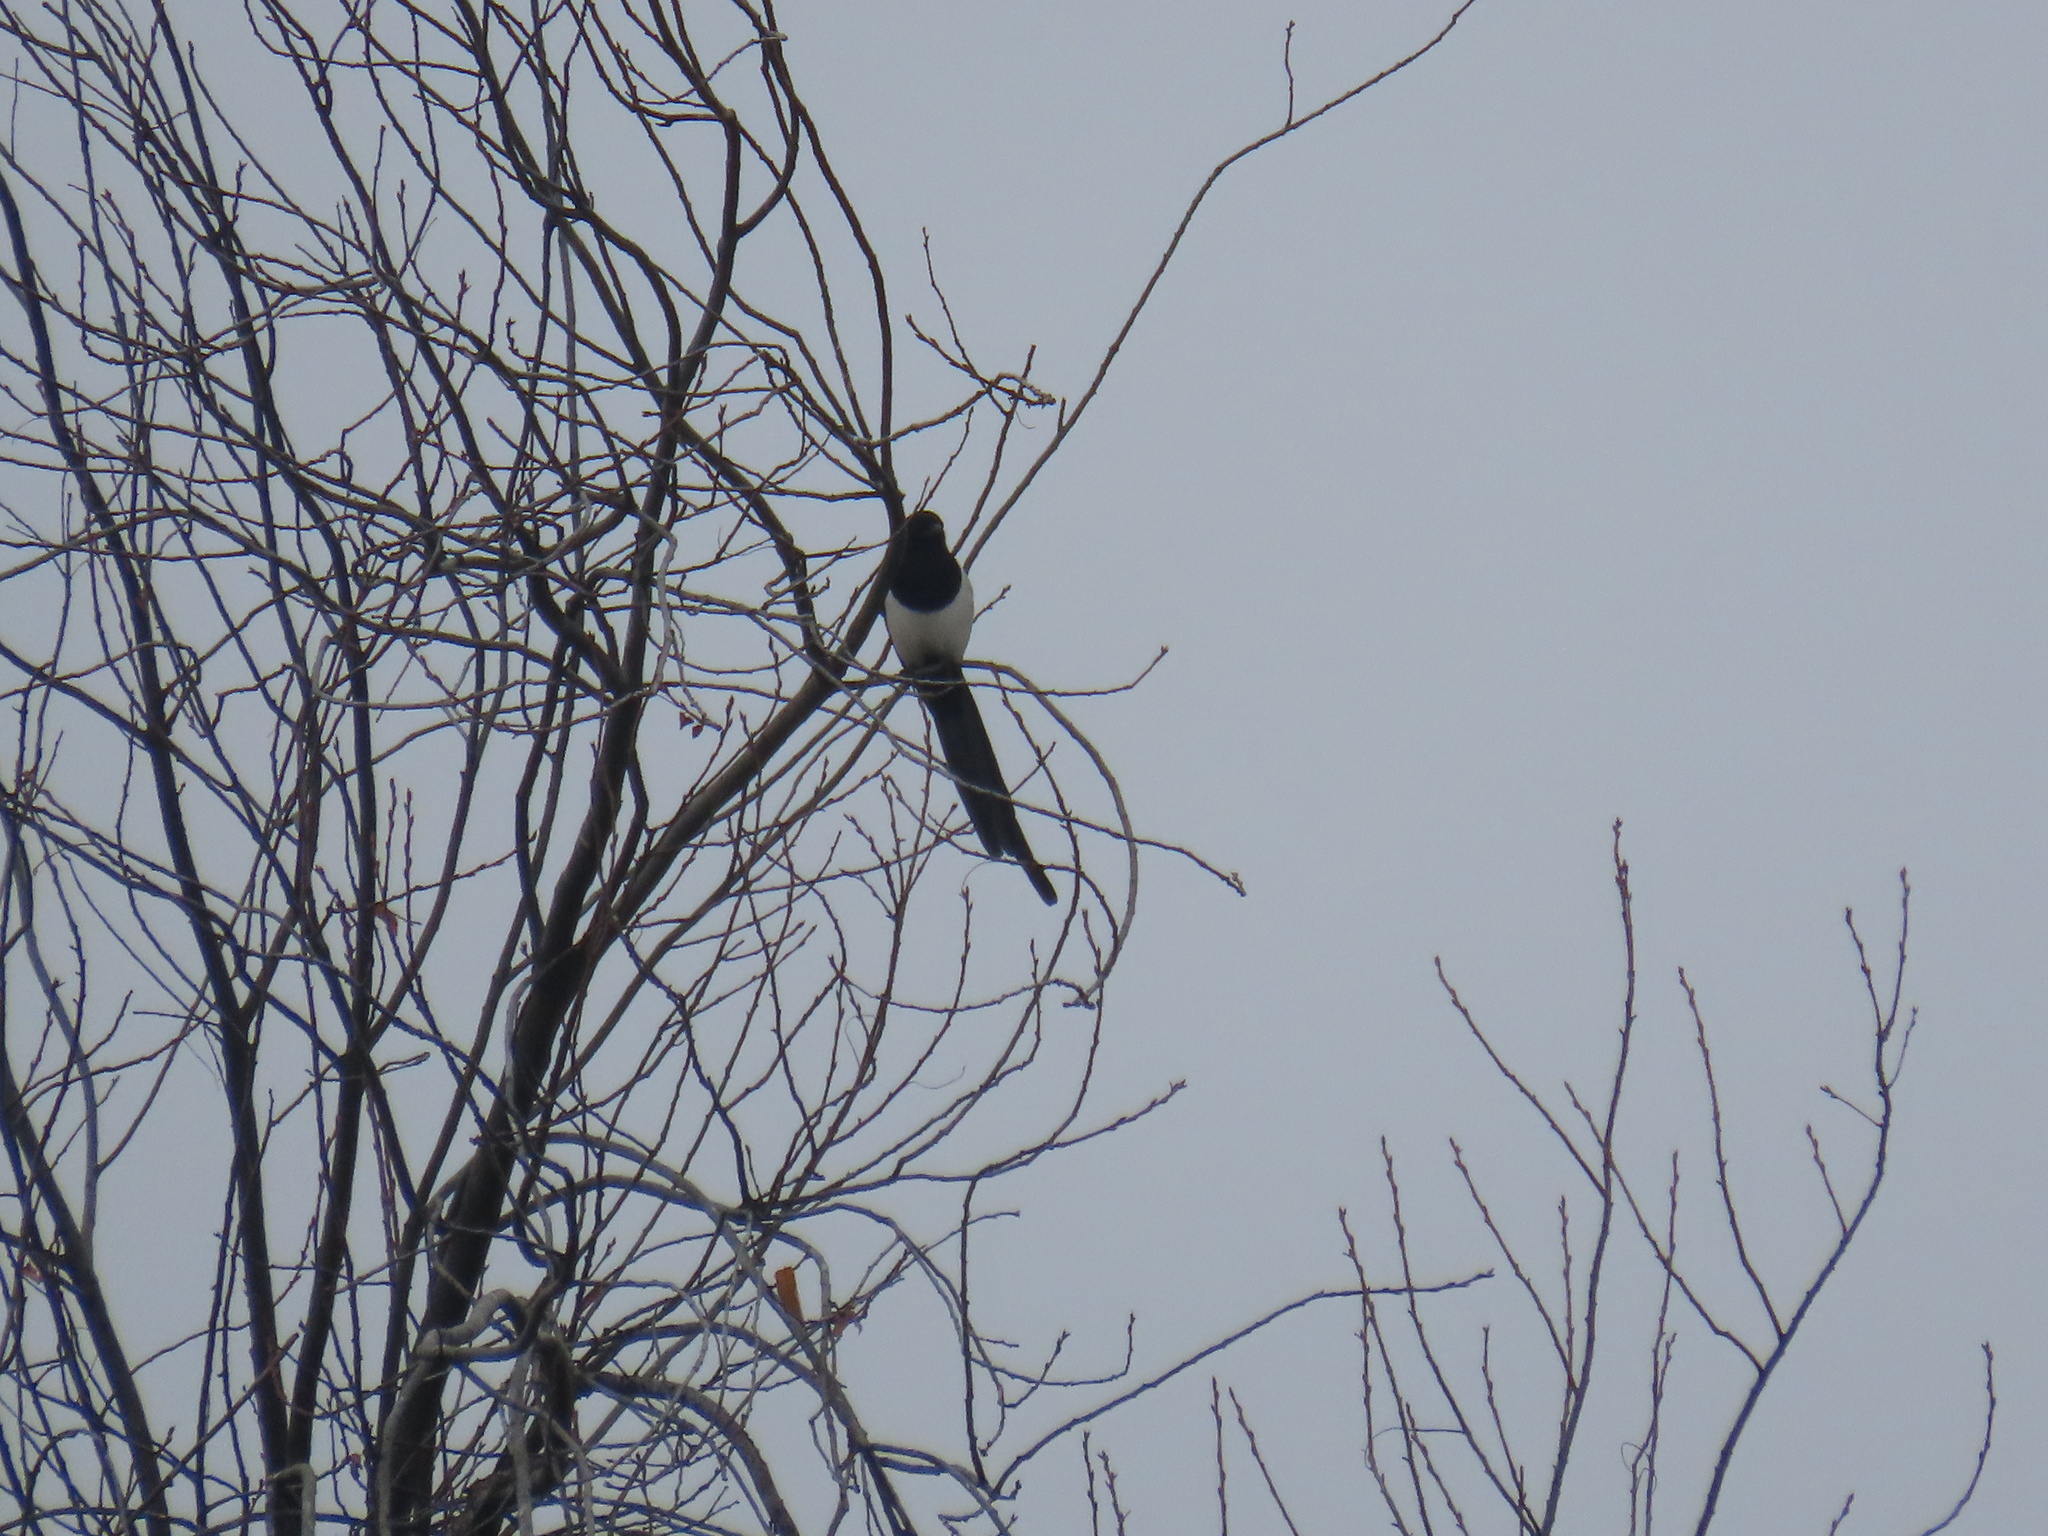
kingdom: Animalia
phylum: Chordata
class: Aves
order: Passeriformes
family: Corvidae
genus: Pica
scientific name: Pica hudsonia
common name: Black-billed magpie
